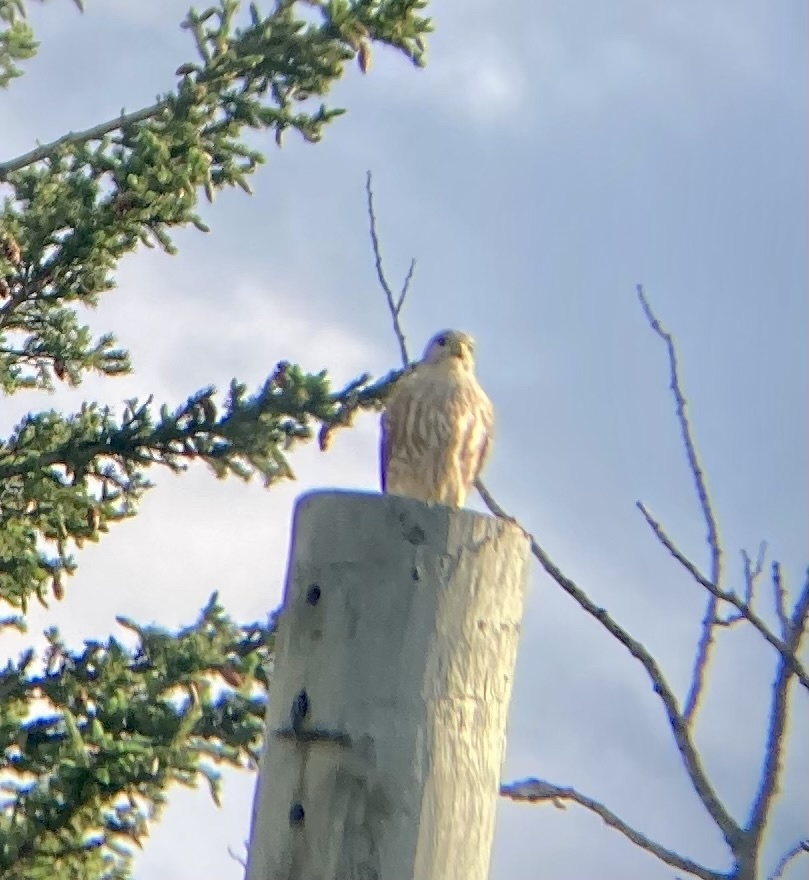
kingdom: Animalia
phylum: Chordata
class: Aves
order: Falconiformes
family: Falconidae
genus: Falco
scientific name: Falco columbarius
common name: Merlin
